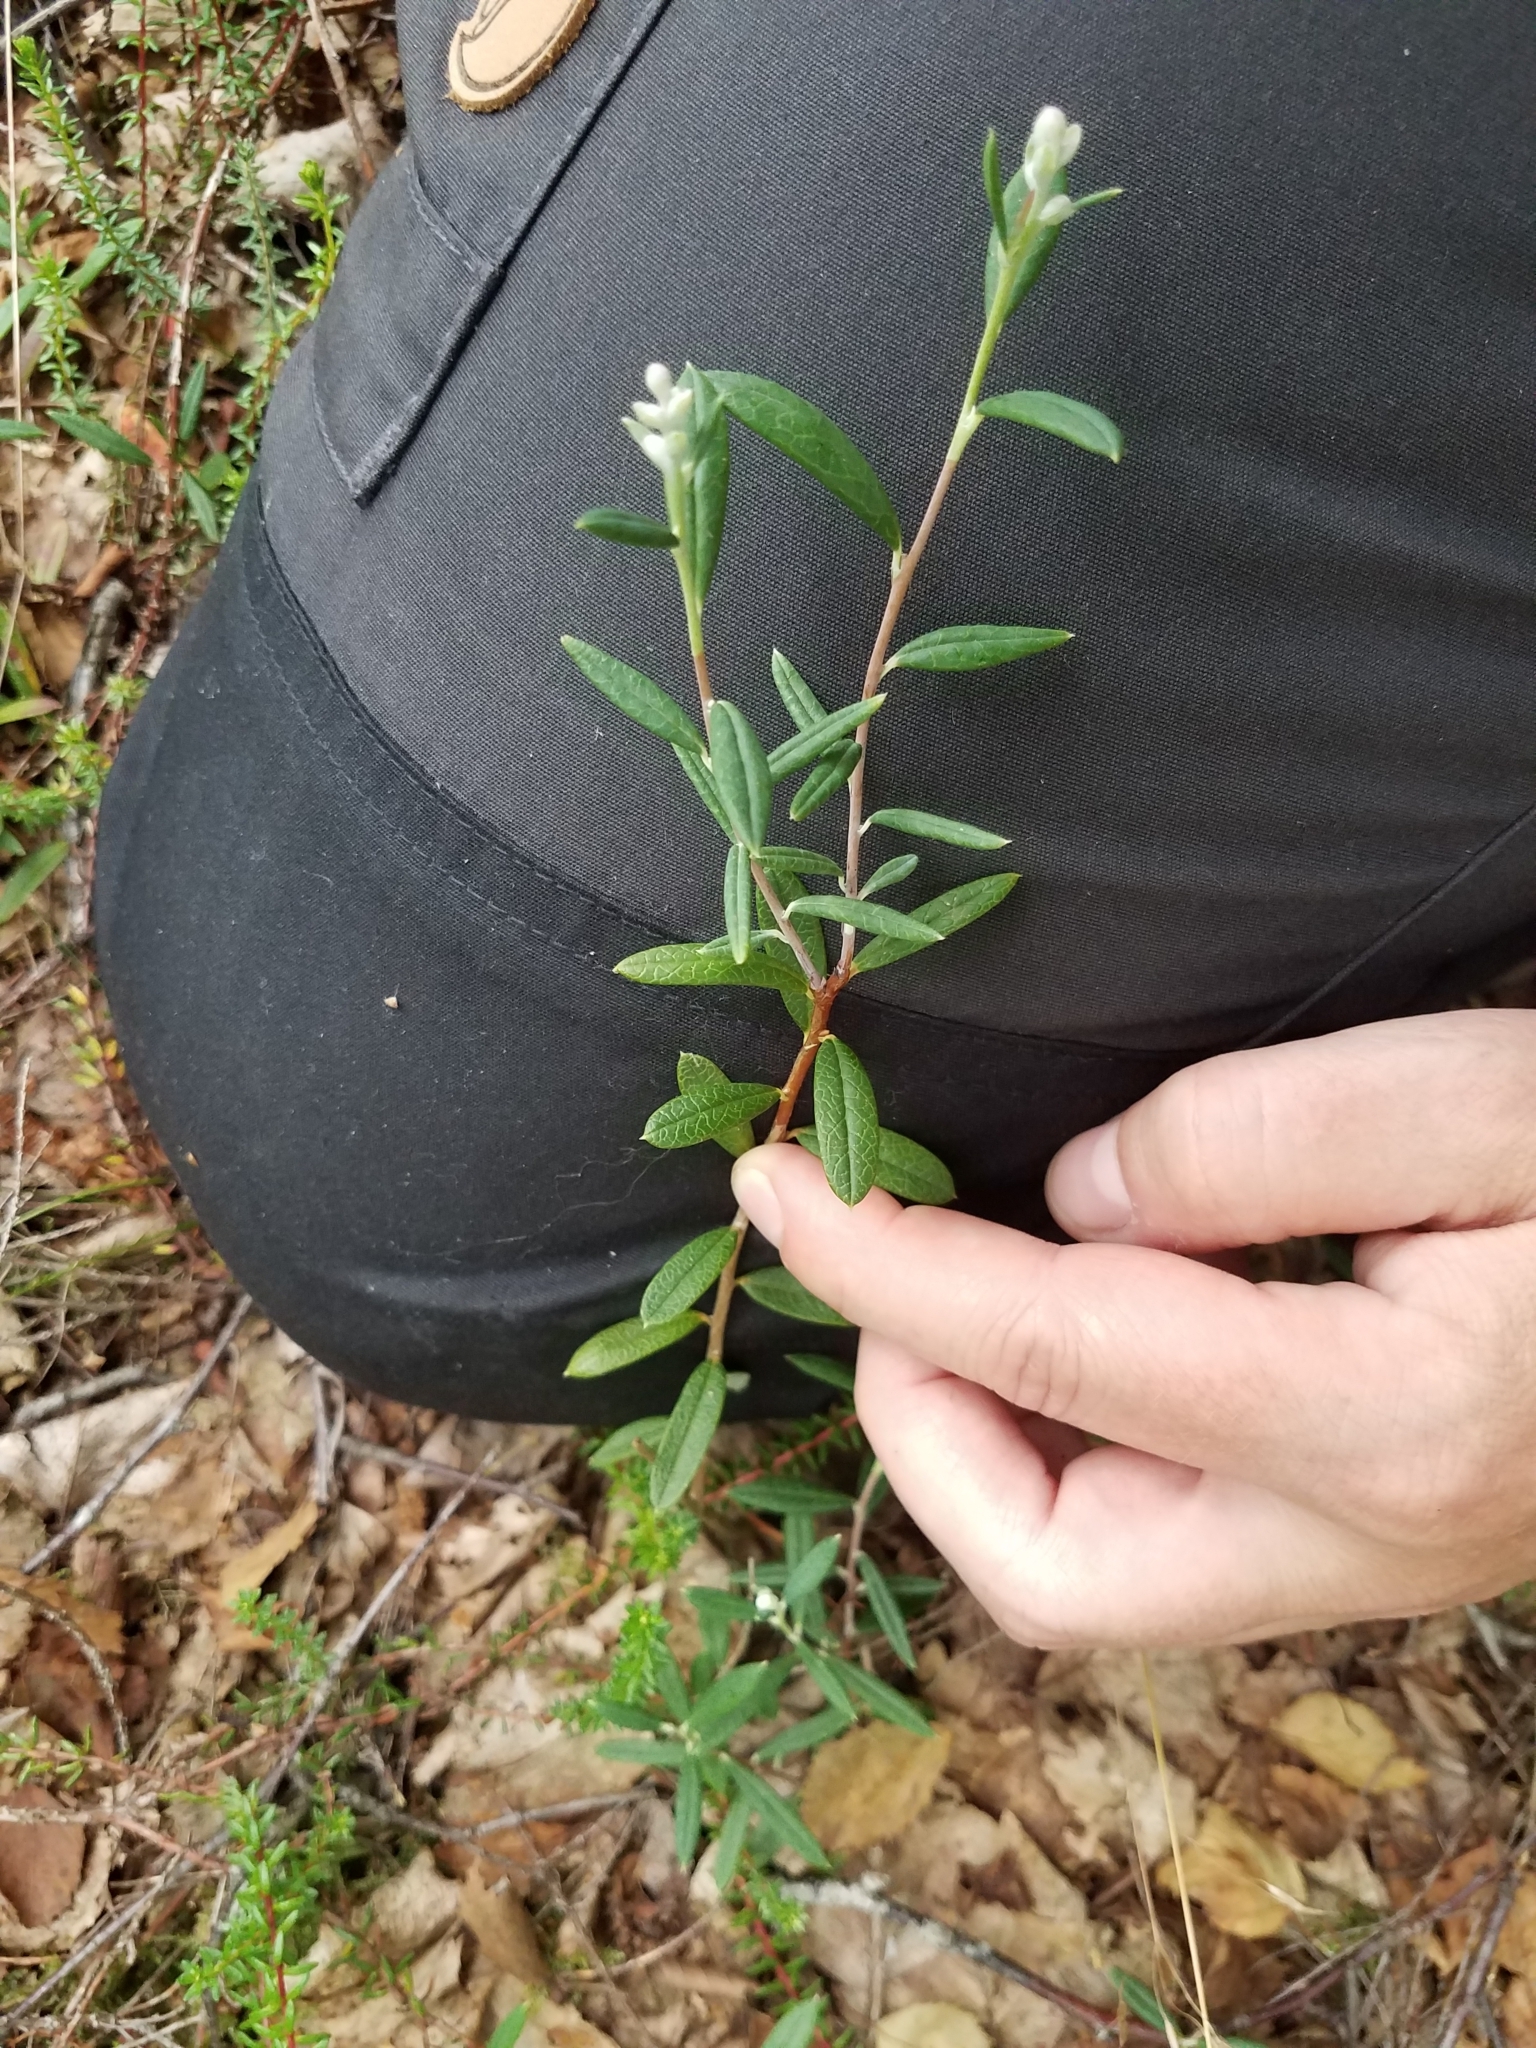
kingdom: Plantae
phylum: Tracheophyta
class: Magnoliopsida
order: Ericales
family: Ericaceae
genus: Andromeda
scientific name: Andromeda polifolia
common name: Bog-rosemary
